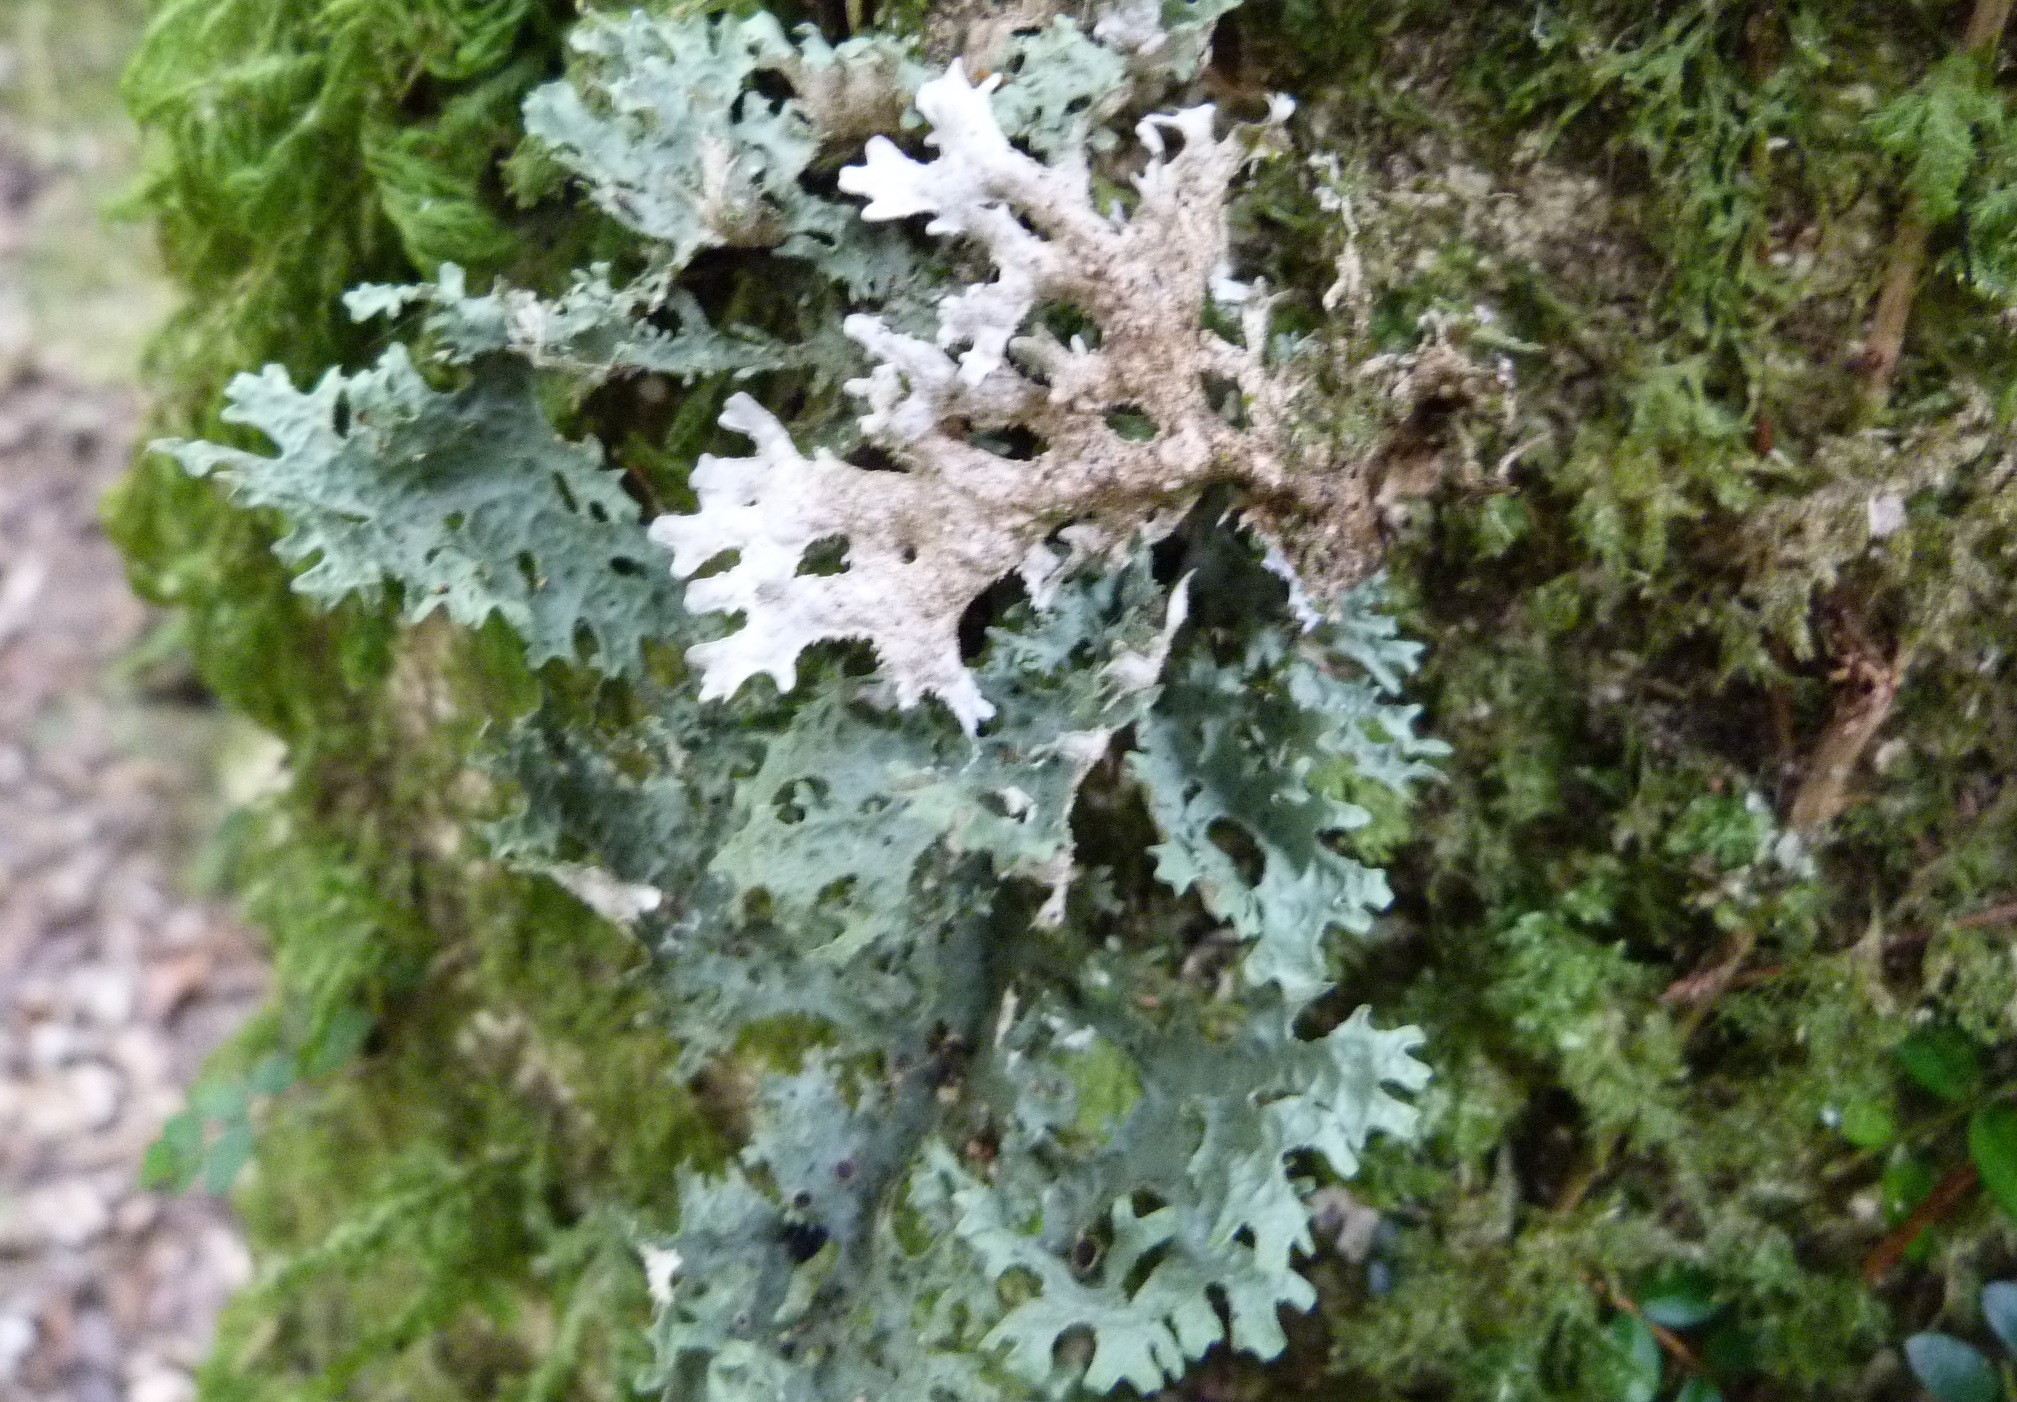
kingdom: Fungi
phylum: Ascomycota
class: Lecanoromycetes
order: Peltigerales
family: Lobariaceae
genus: Pseudocyphellaria
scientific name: Pseudocyphellaria faveolata
